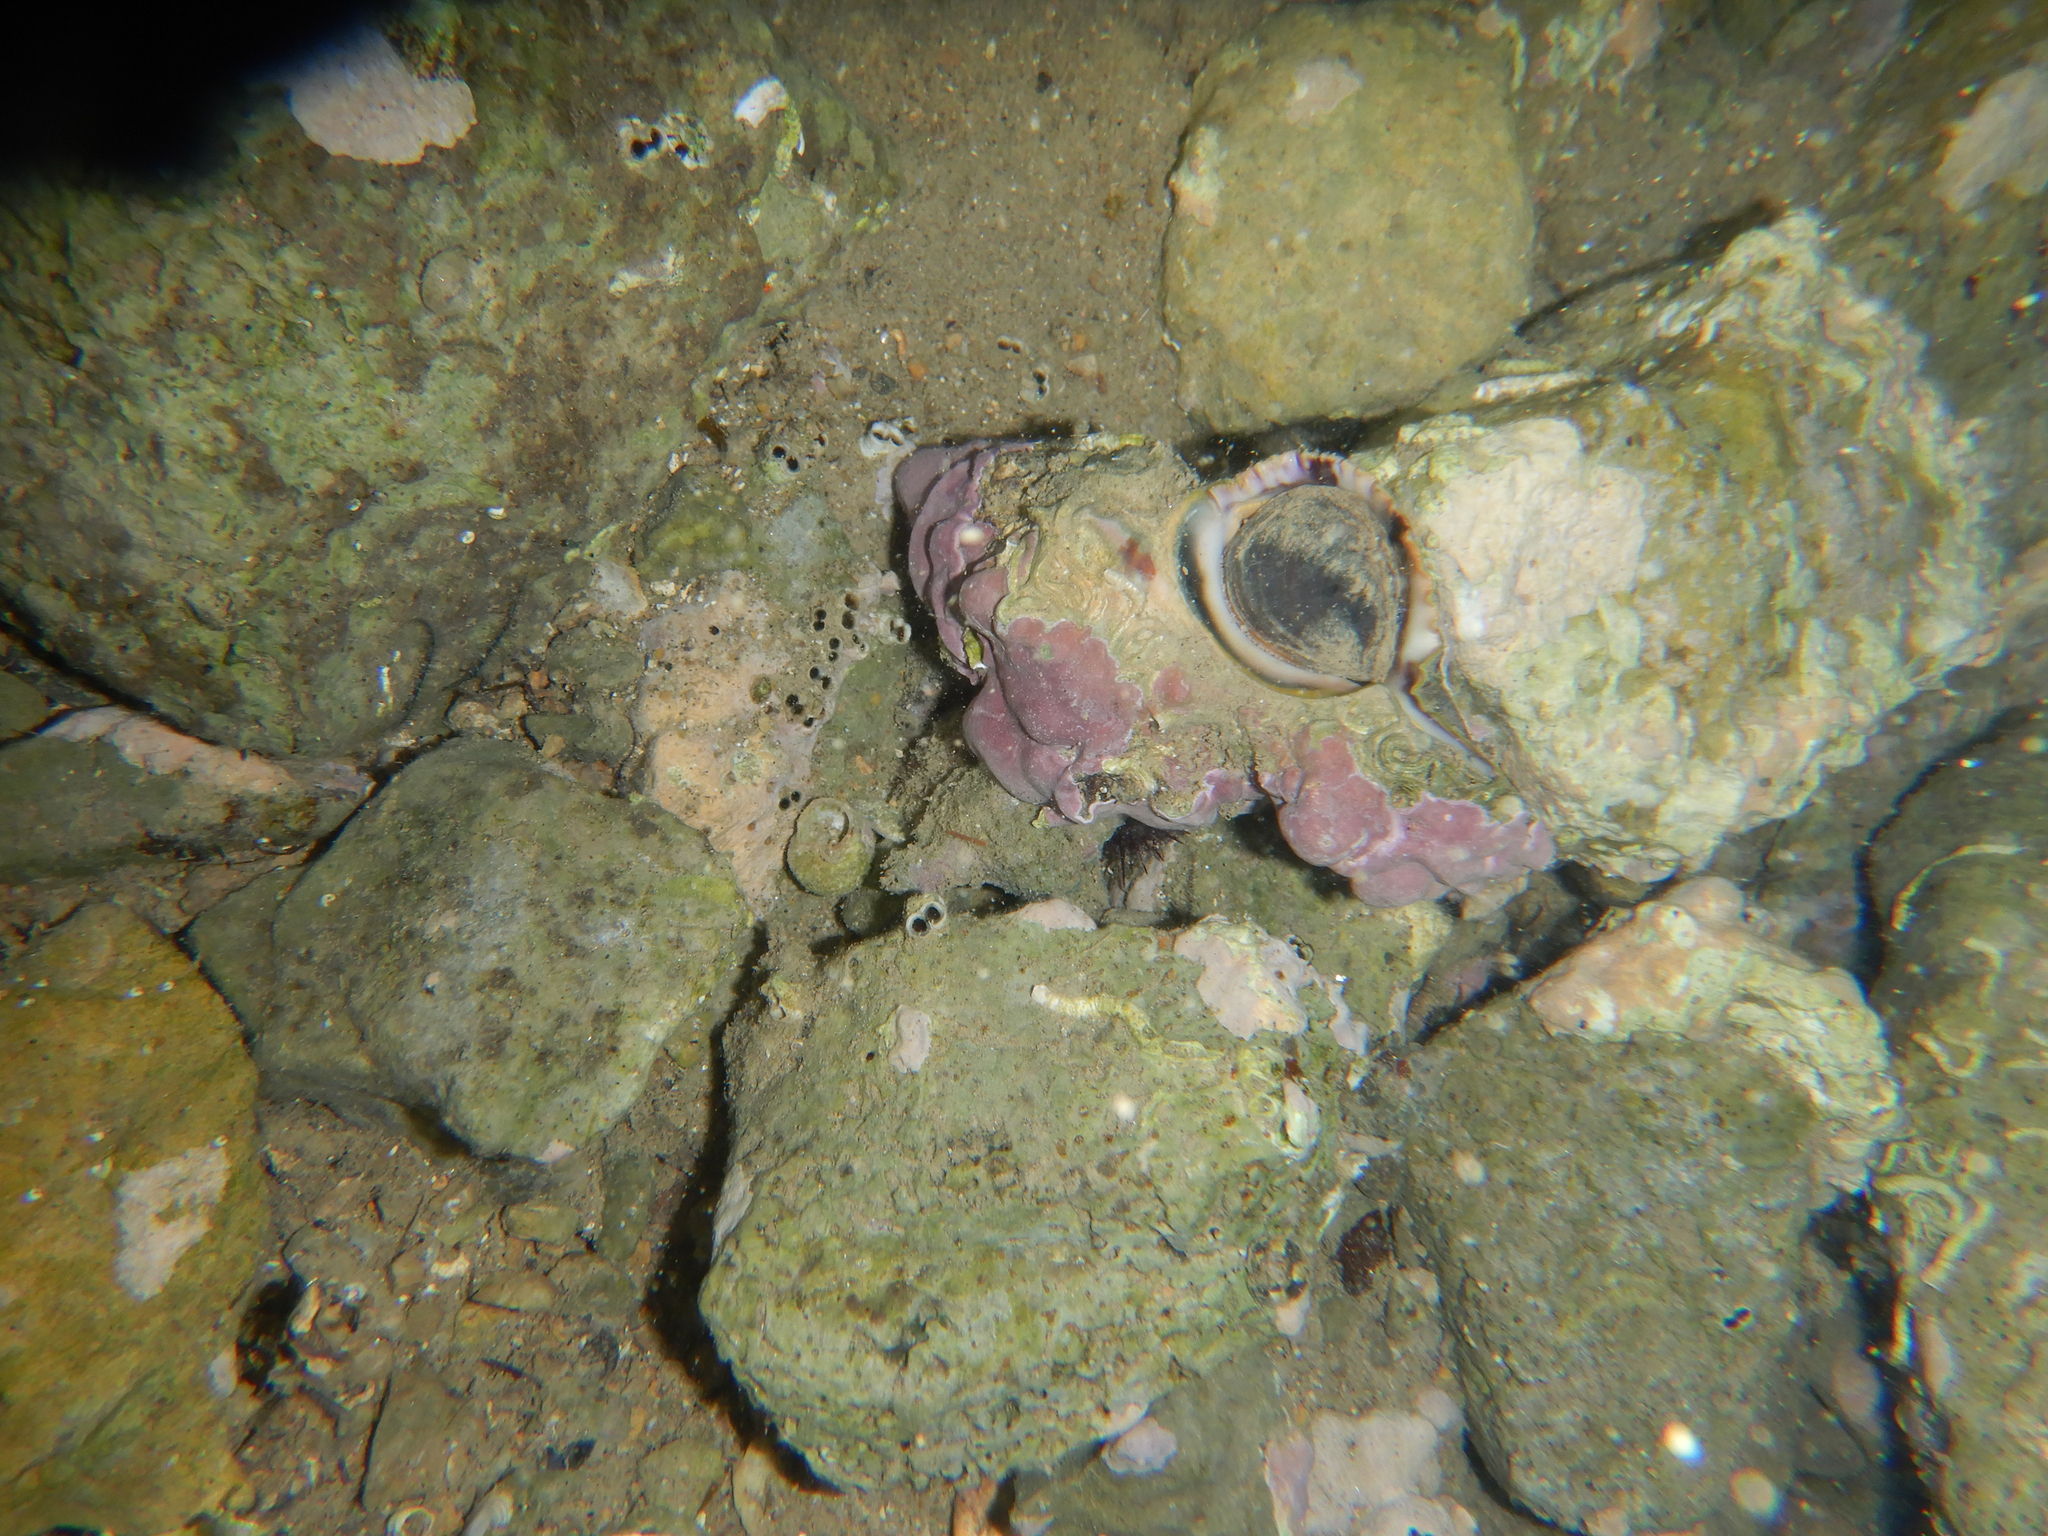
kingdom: Animalia
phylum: Mollusca
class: Gastropoda
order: Neogastropoda
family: Muricidae
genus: Hexaplex
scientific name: Hexaplex trunculus
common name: Banded dye-murex
